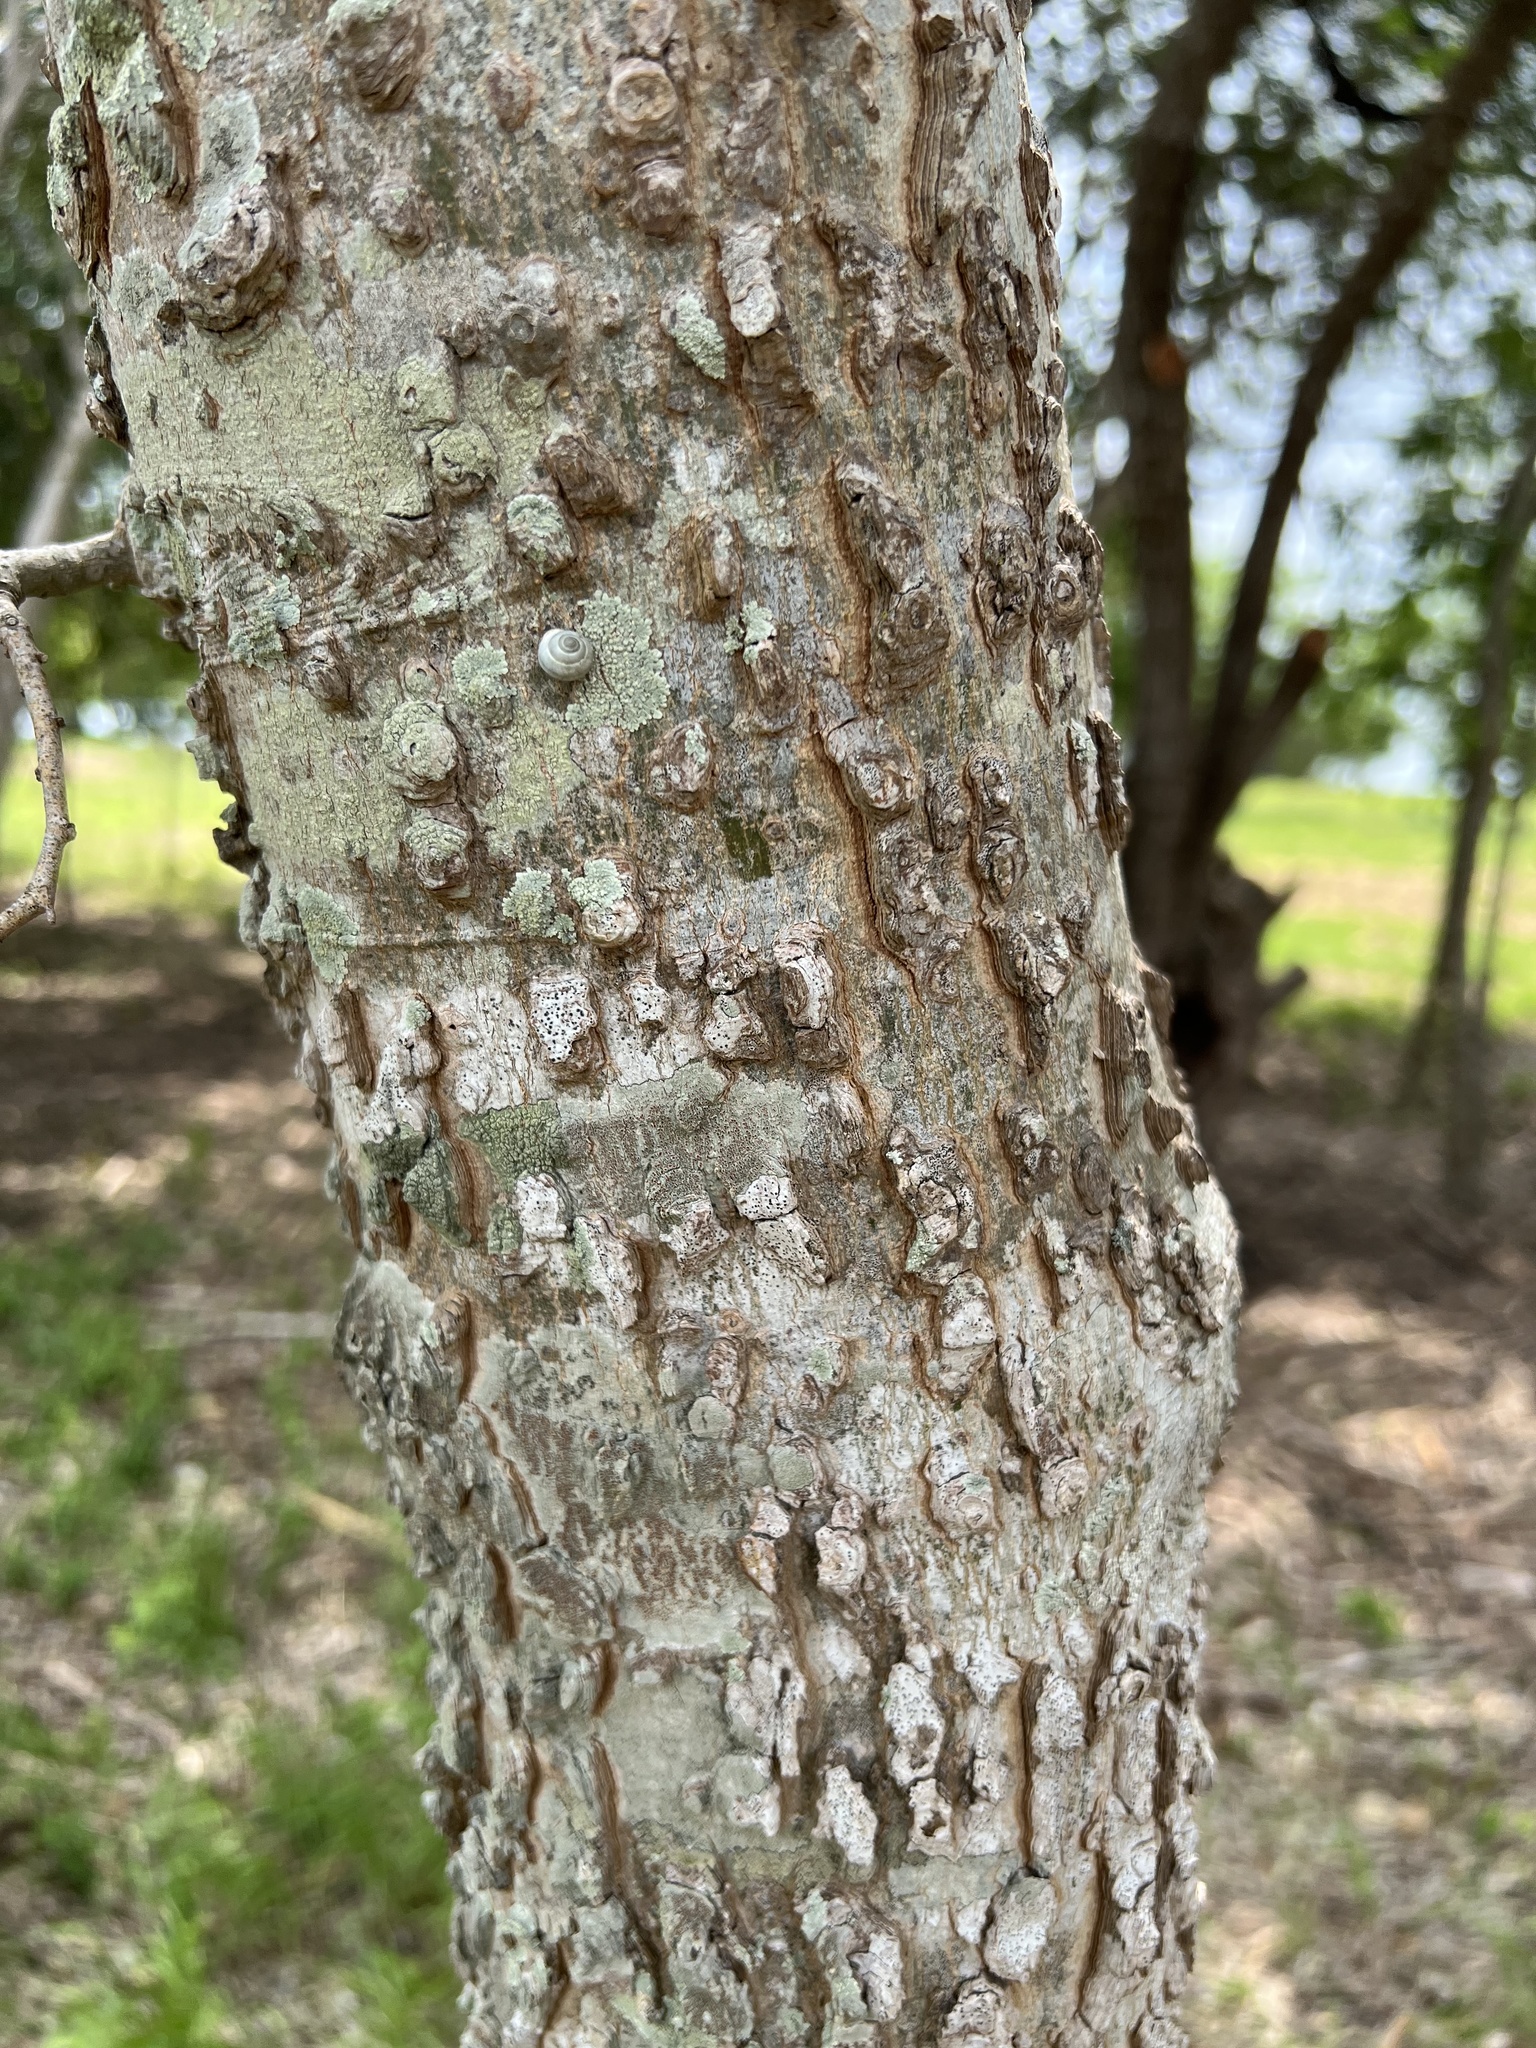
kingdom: Plantae
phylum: Tracheophyta
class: Magnoliopsida
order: Rosales
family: Cannabaceae
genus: Celtis
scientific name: Celtis laevigata
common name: Sugarberry
